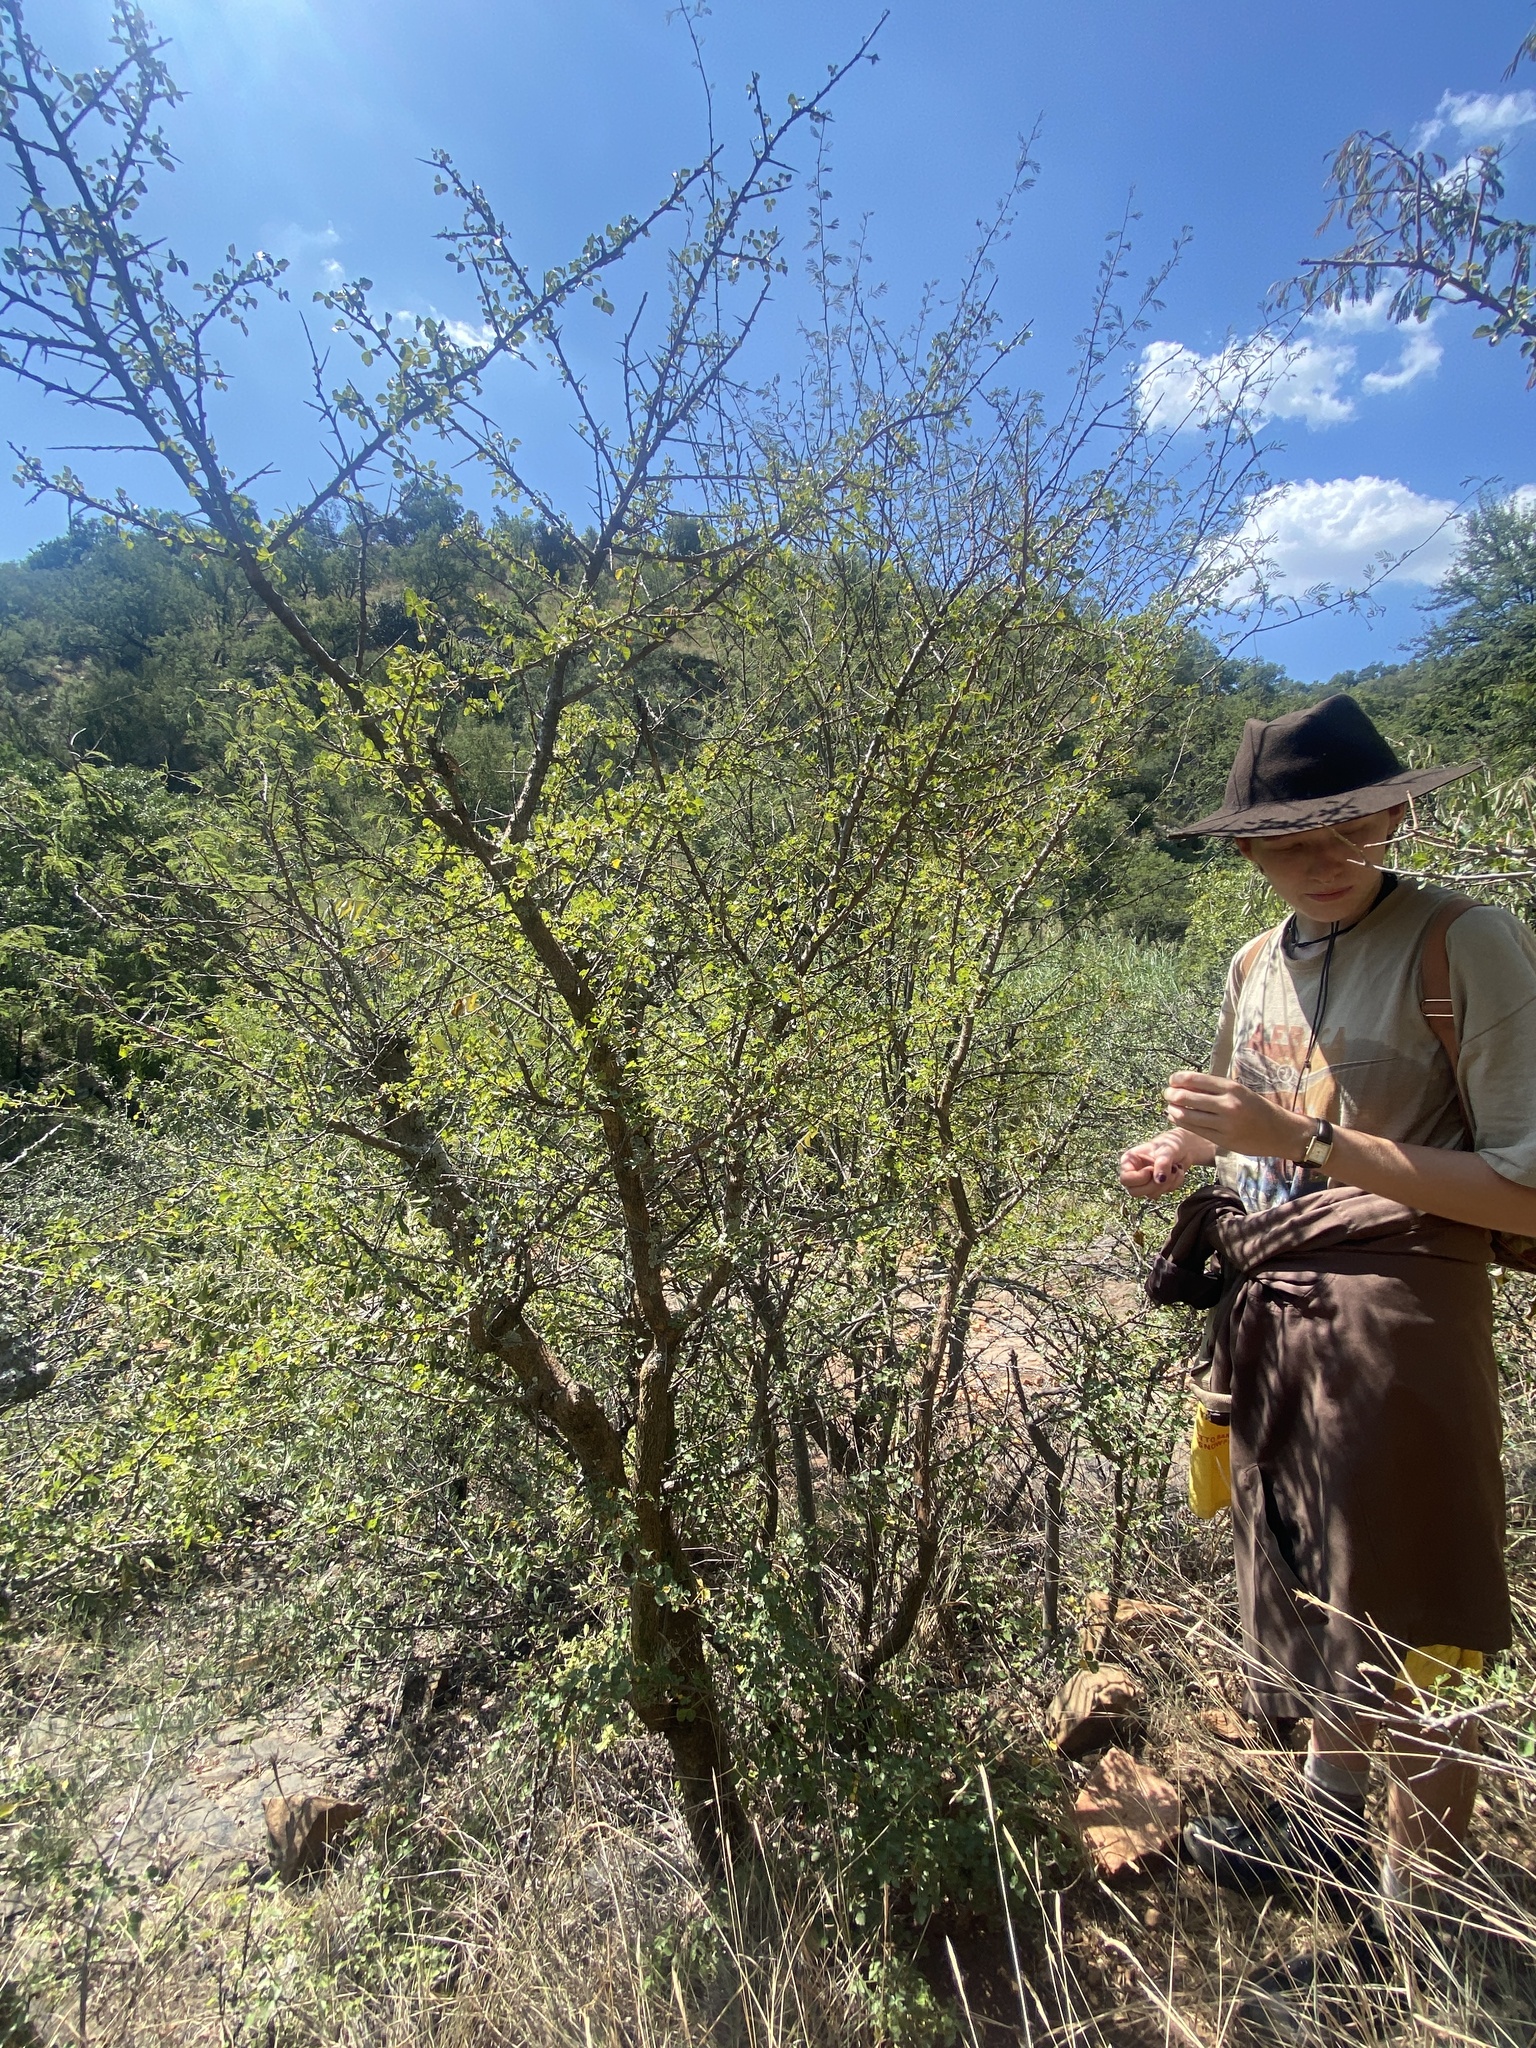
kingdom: Plantae
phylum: Tracheophyta
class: Magnoliopsida
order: Sapindales
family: Burseraceae
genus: Commiphora
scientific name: Commiphora schimperi
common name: Glossy-leaved corkwood
